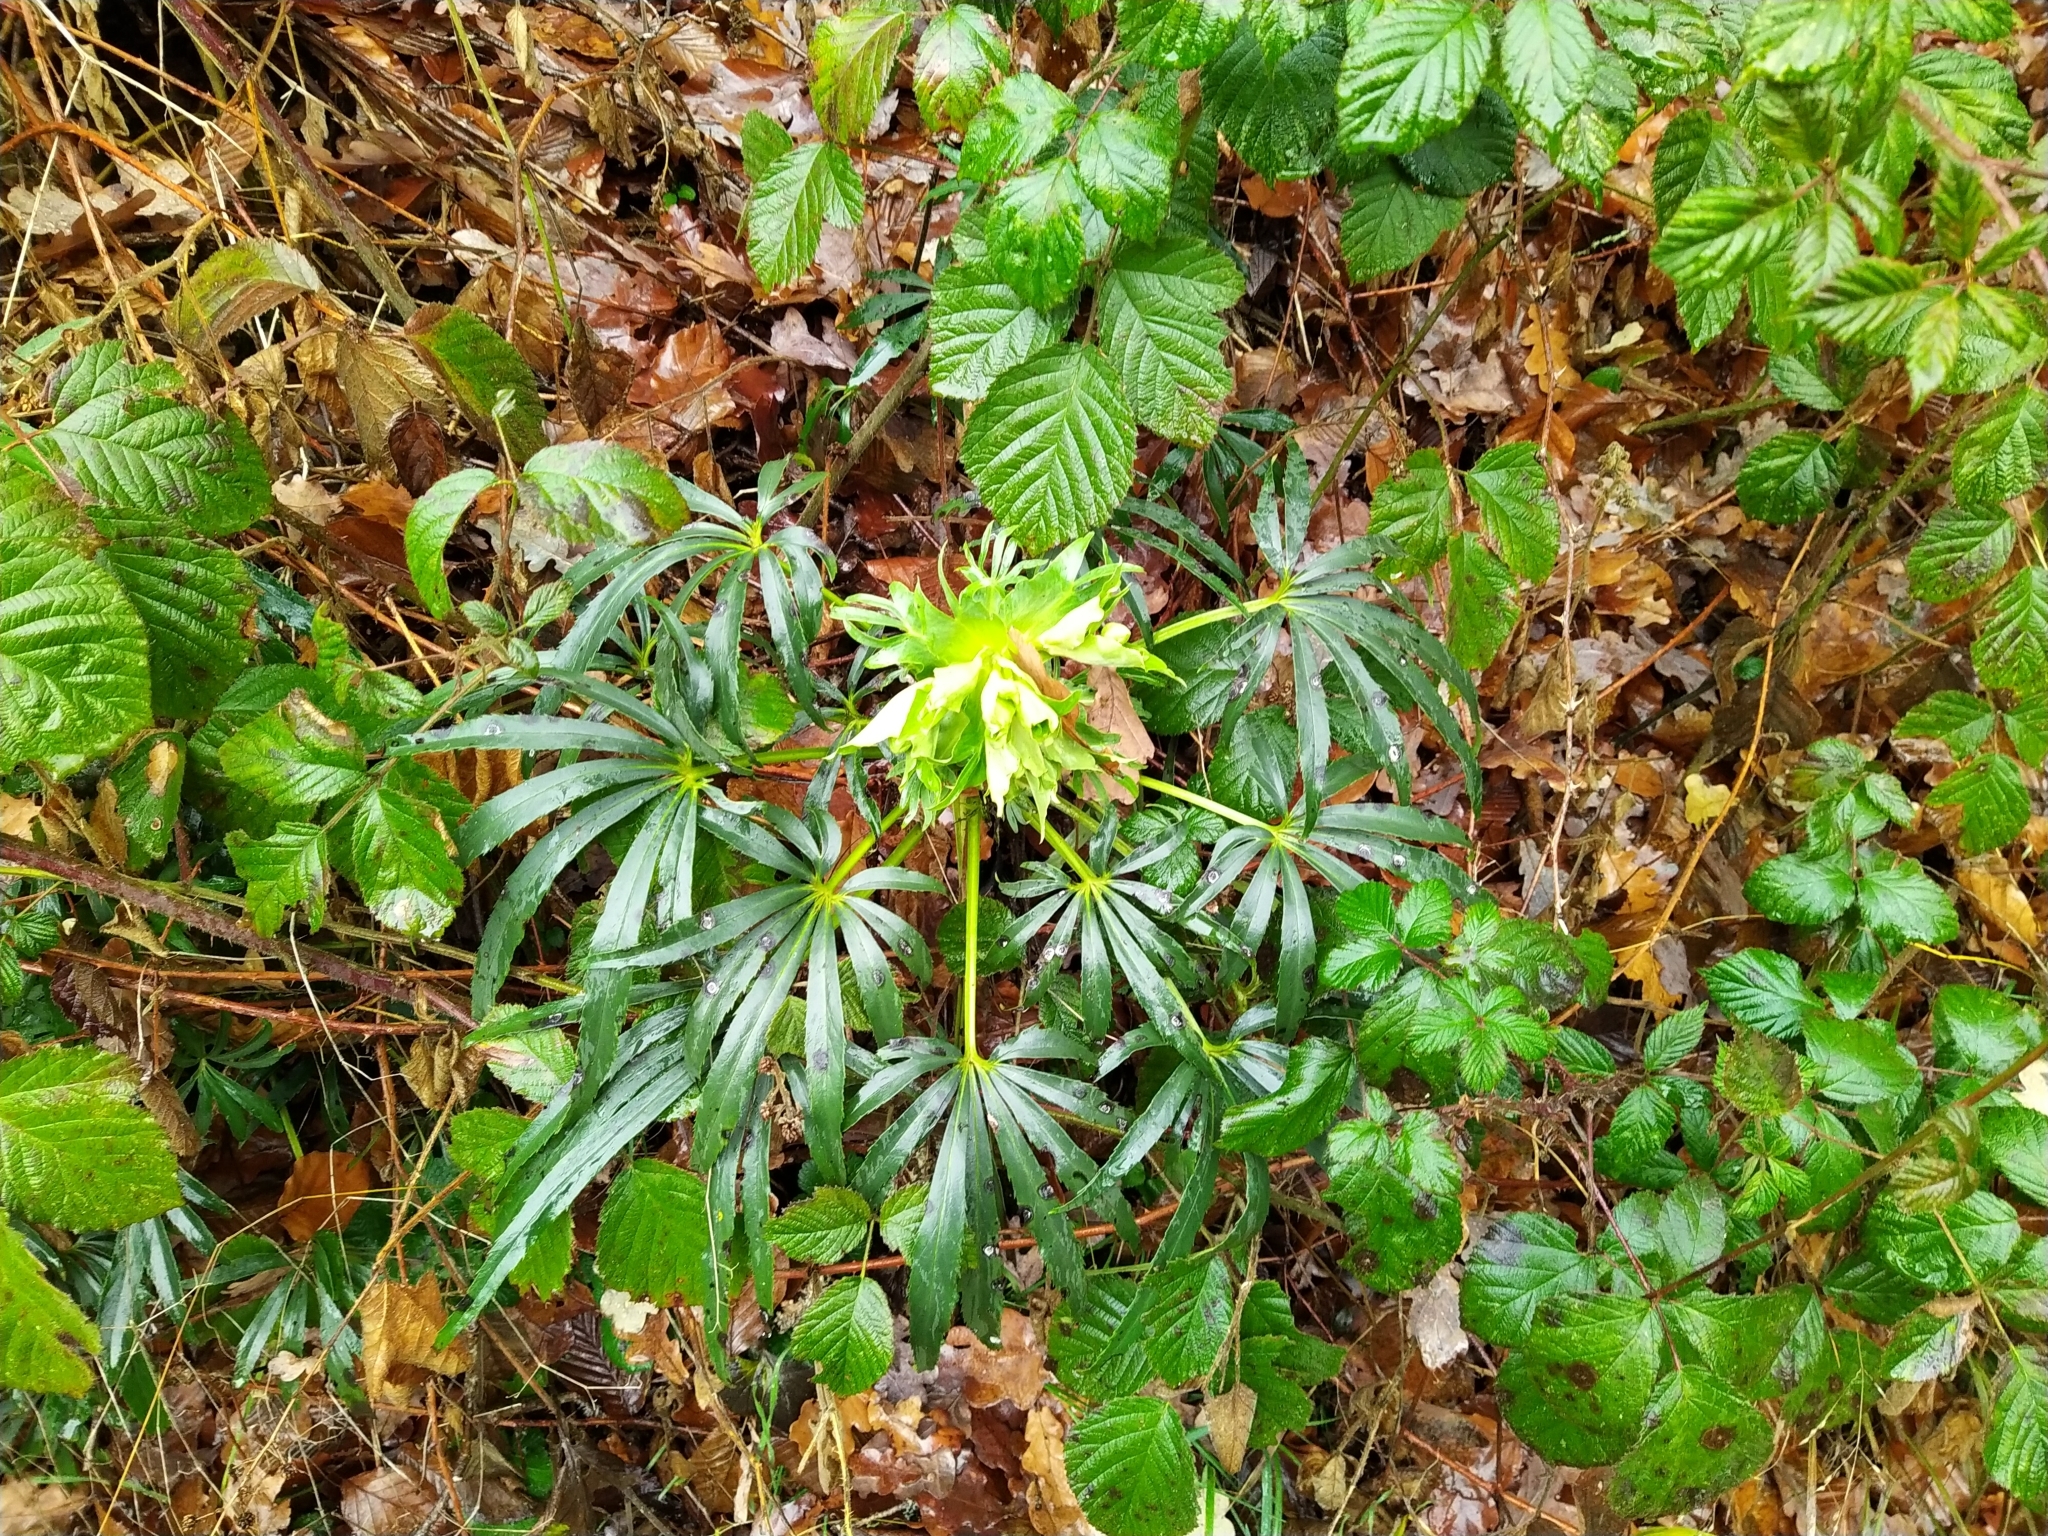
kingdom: Plantae
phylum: Tracheophyta
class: Magnoliopsida
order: Ranunculales
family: Ranunculaceae
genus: Helleborus
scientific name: Helleborus foetidus
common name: Stinking hellebore
